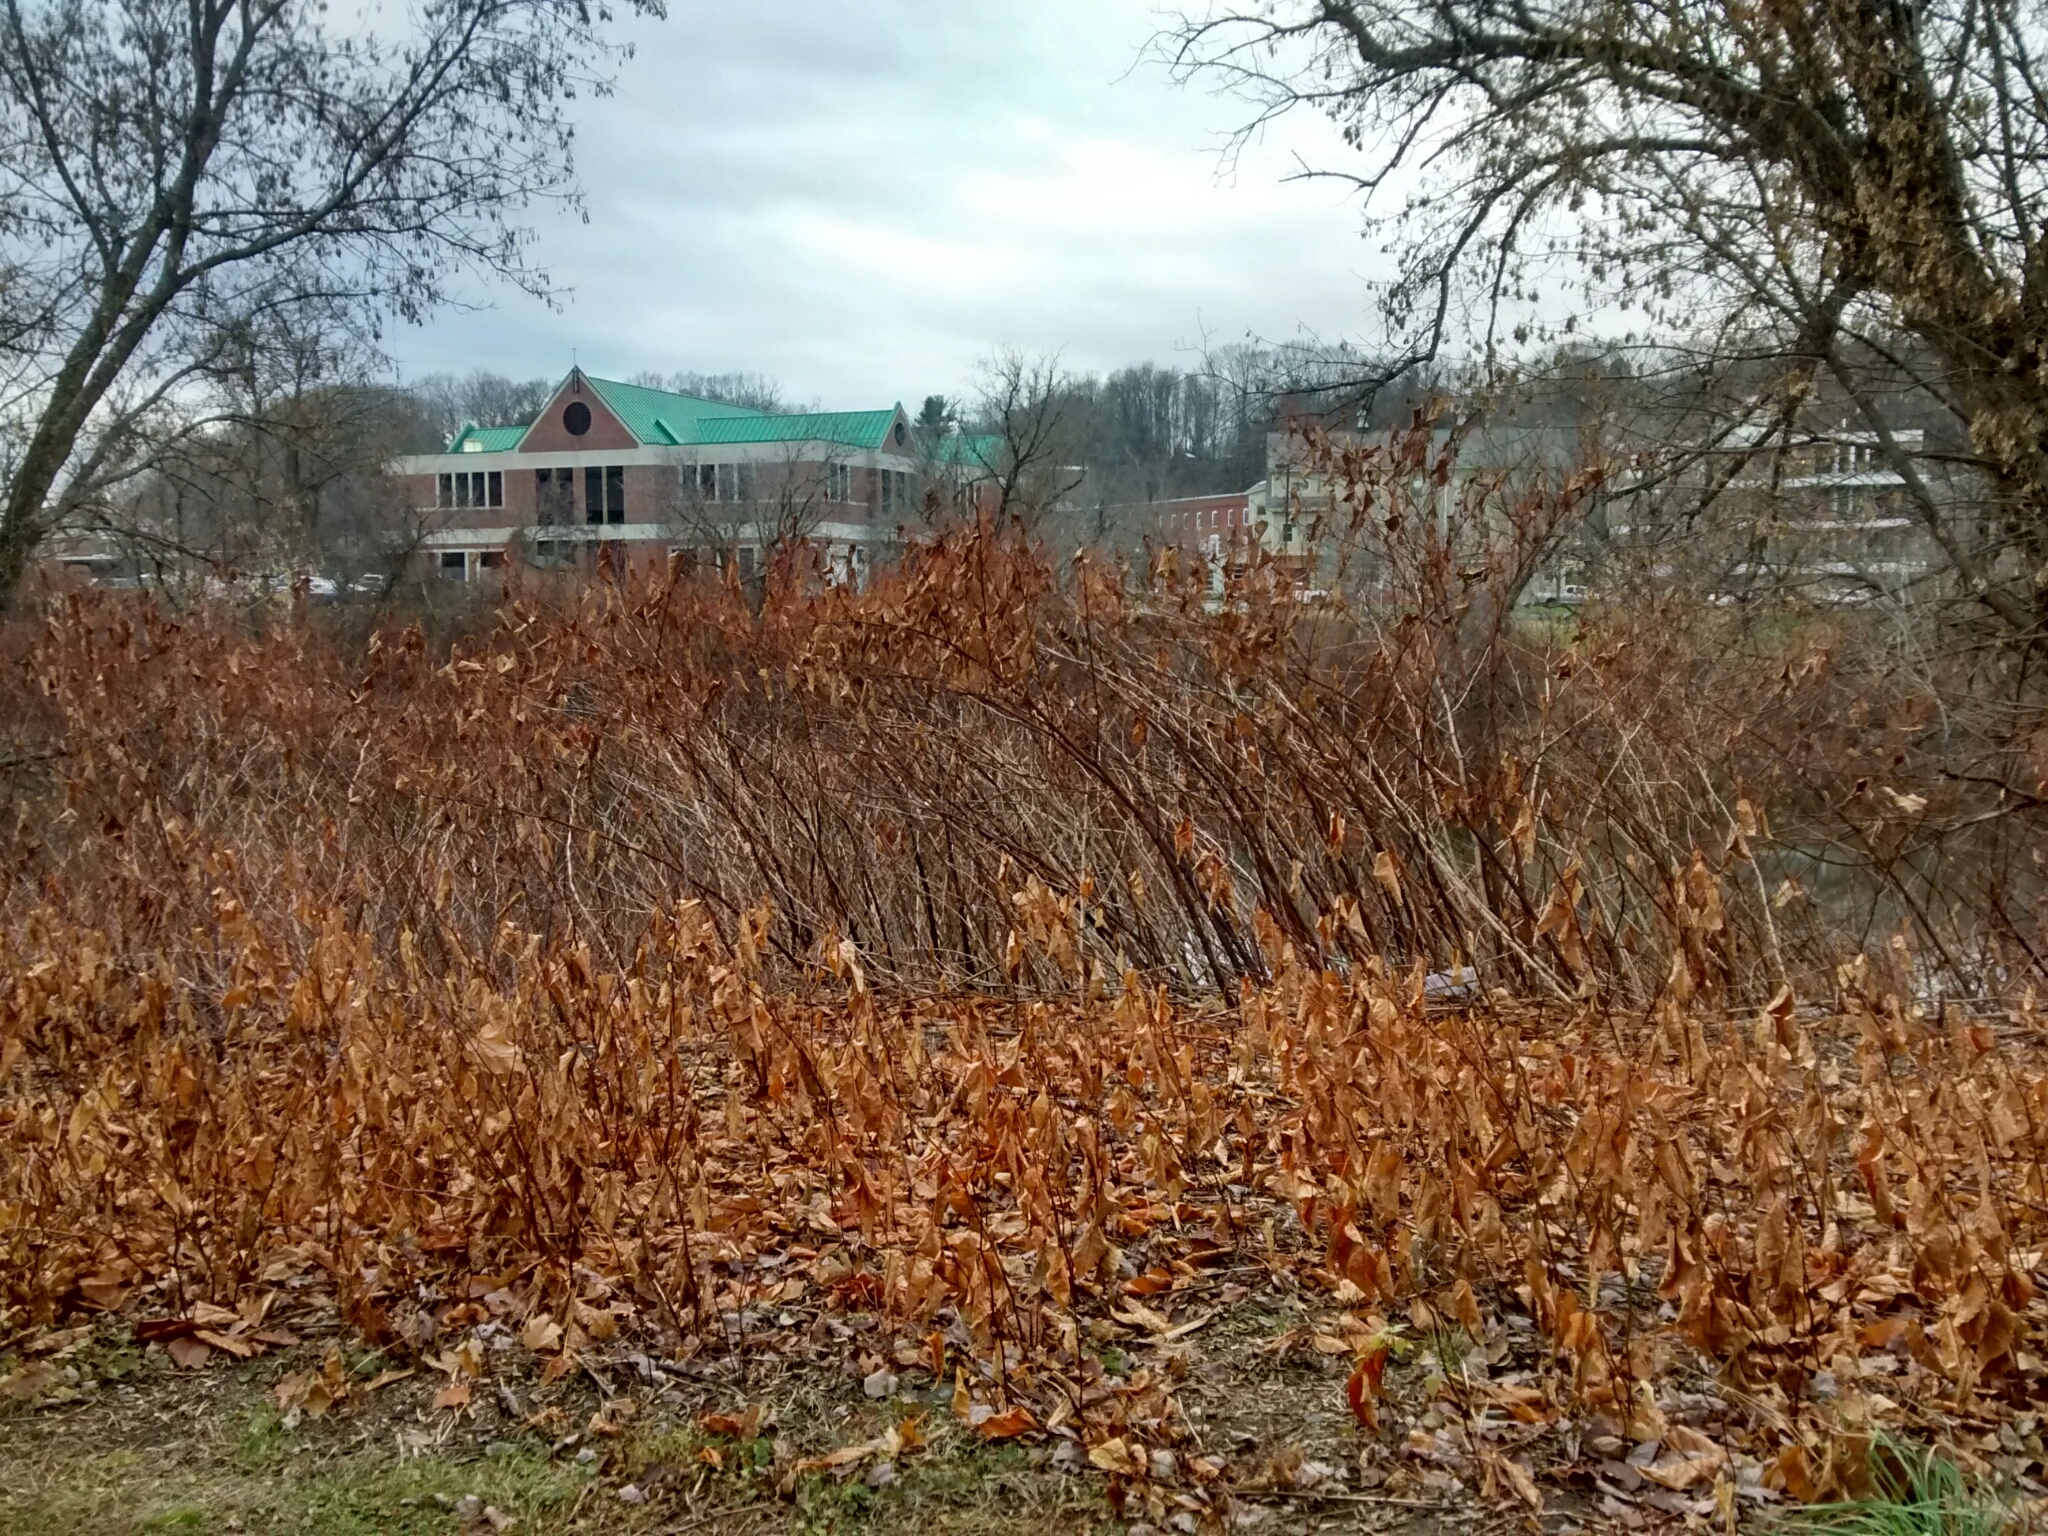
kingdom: Plantae
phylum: Tracheophyta
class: Magnoliopsida
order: Caryophyllales
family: Polygonaceae
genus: Reynoutria
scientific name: Reynoutria japonica
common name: Japanese knotweed
